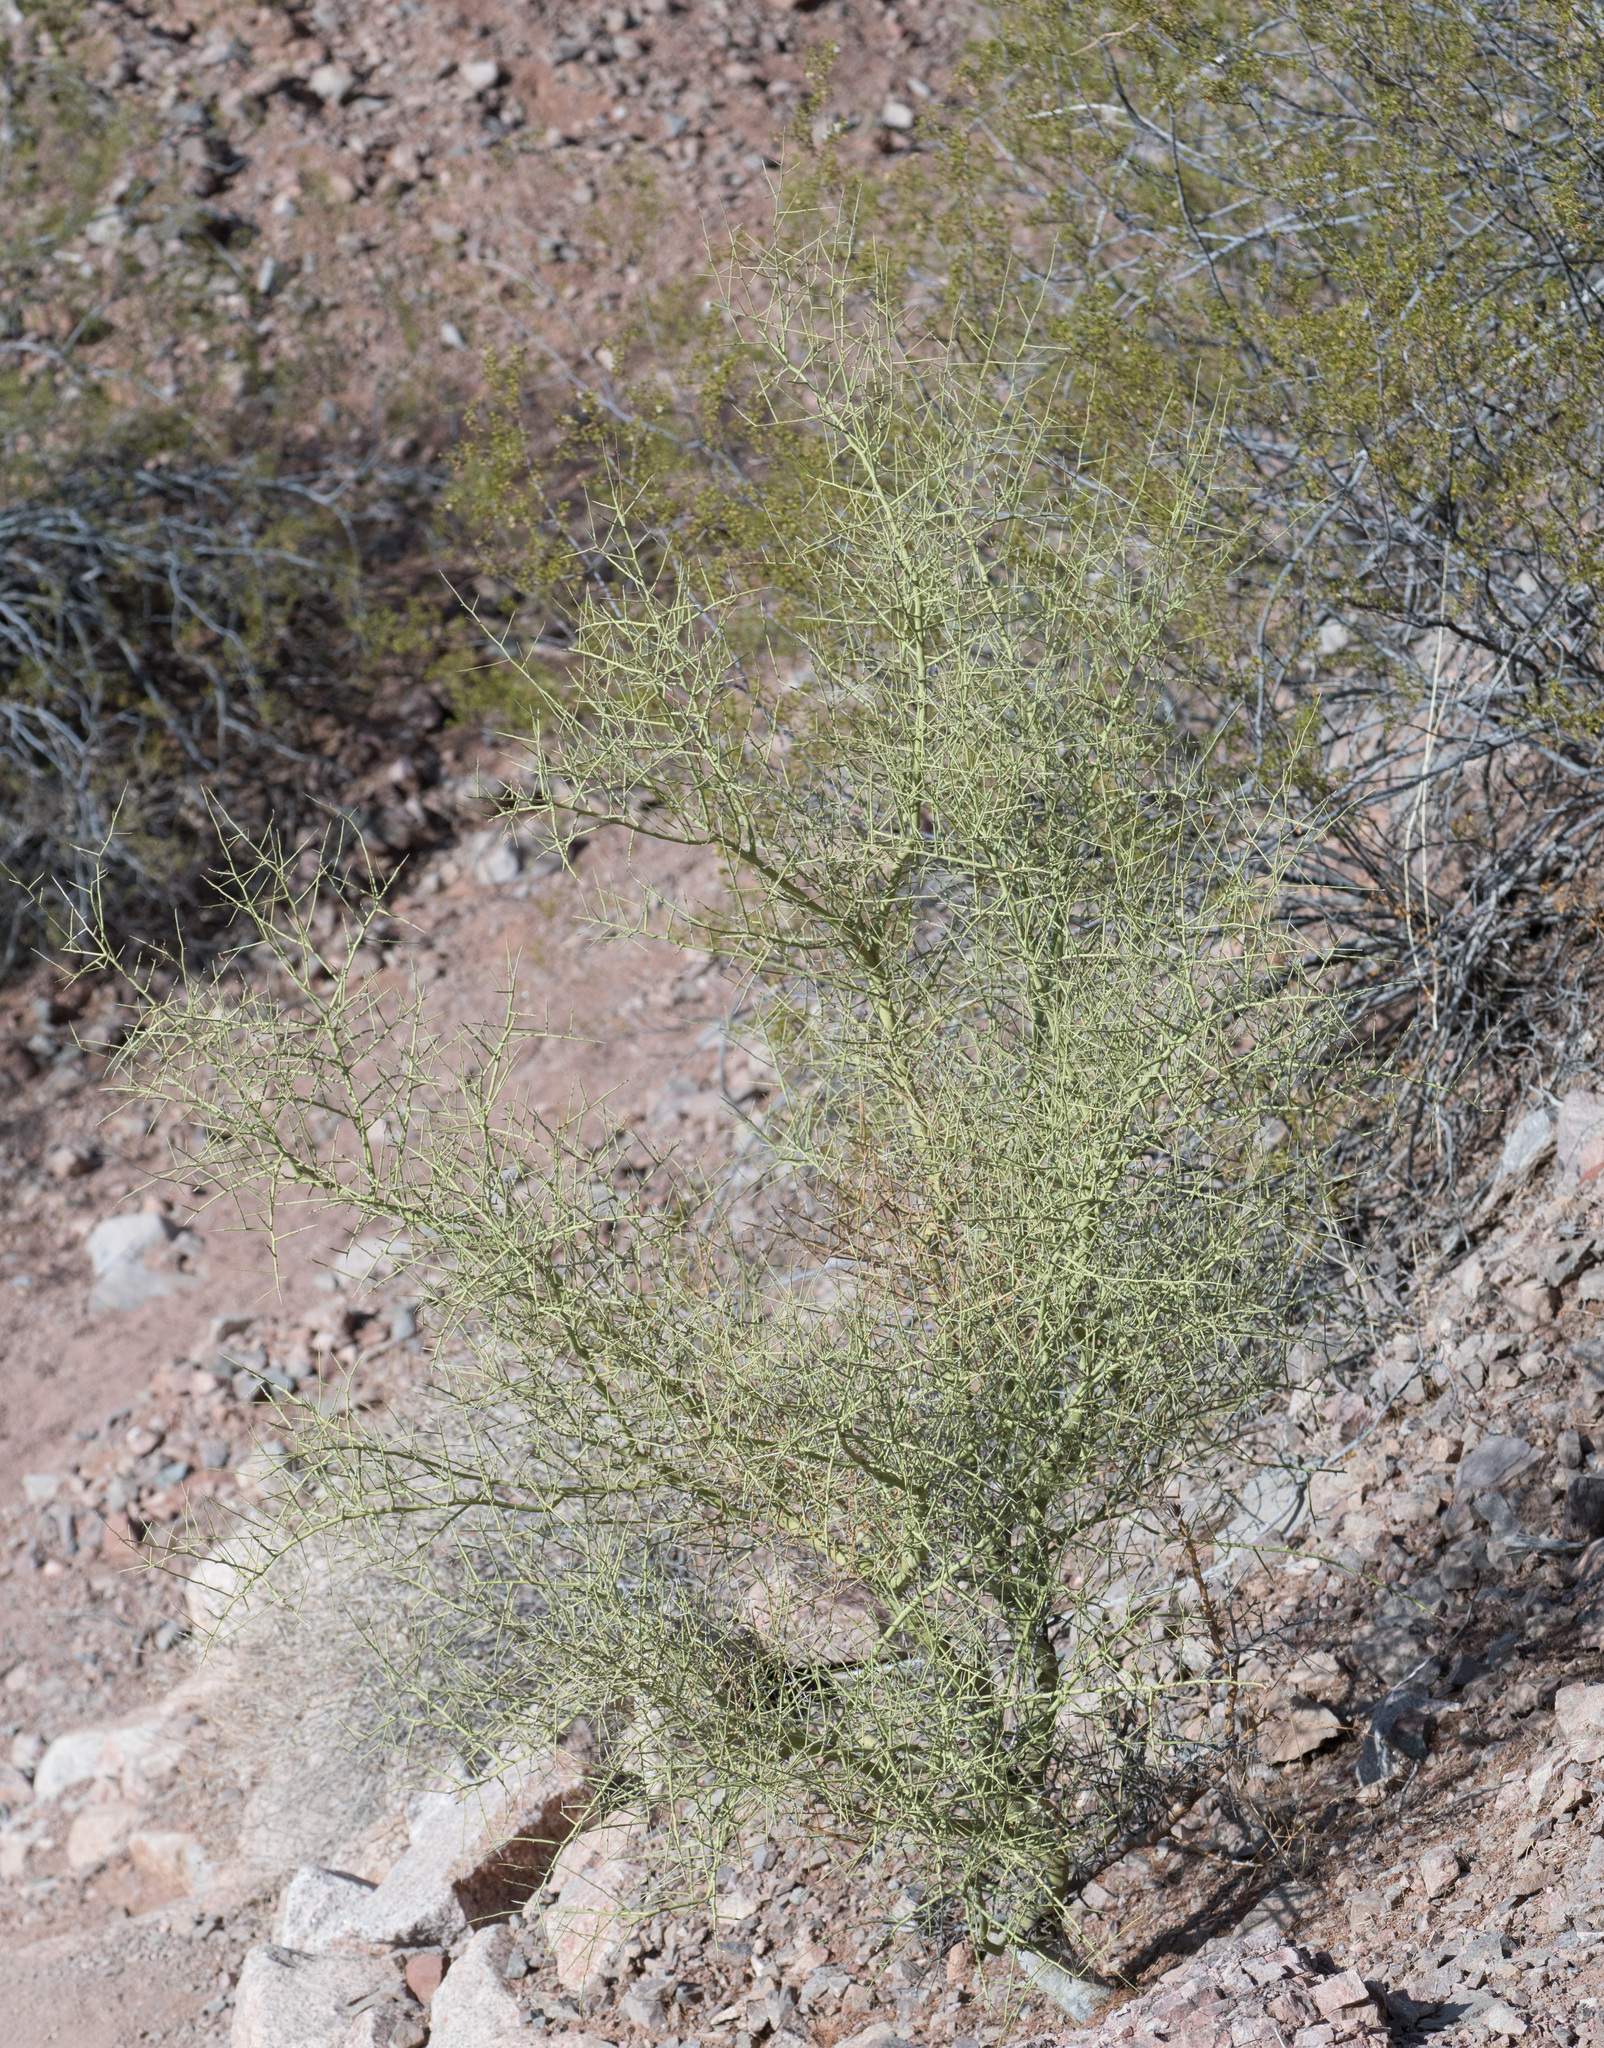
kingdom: Plantae
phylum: Tracheophyta
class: Magnoliopsida
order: Fabales
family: Fabaceae
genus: Parkinsonia
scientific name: Parkinsonia microphylla
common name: Yellow paloverde
